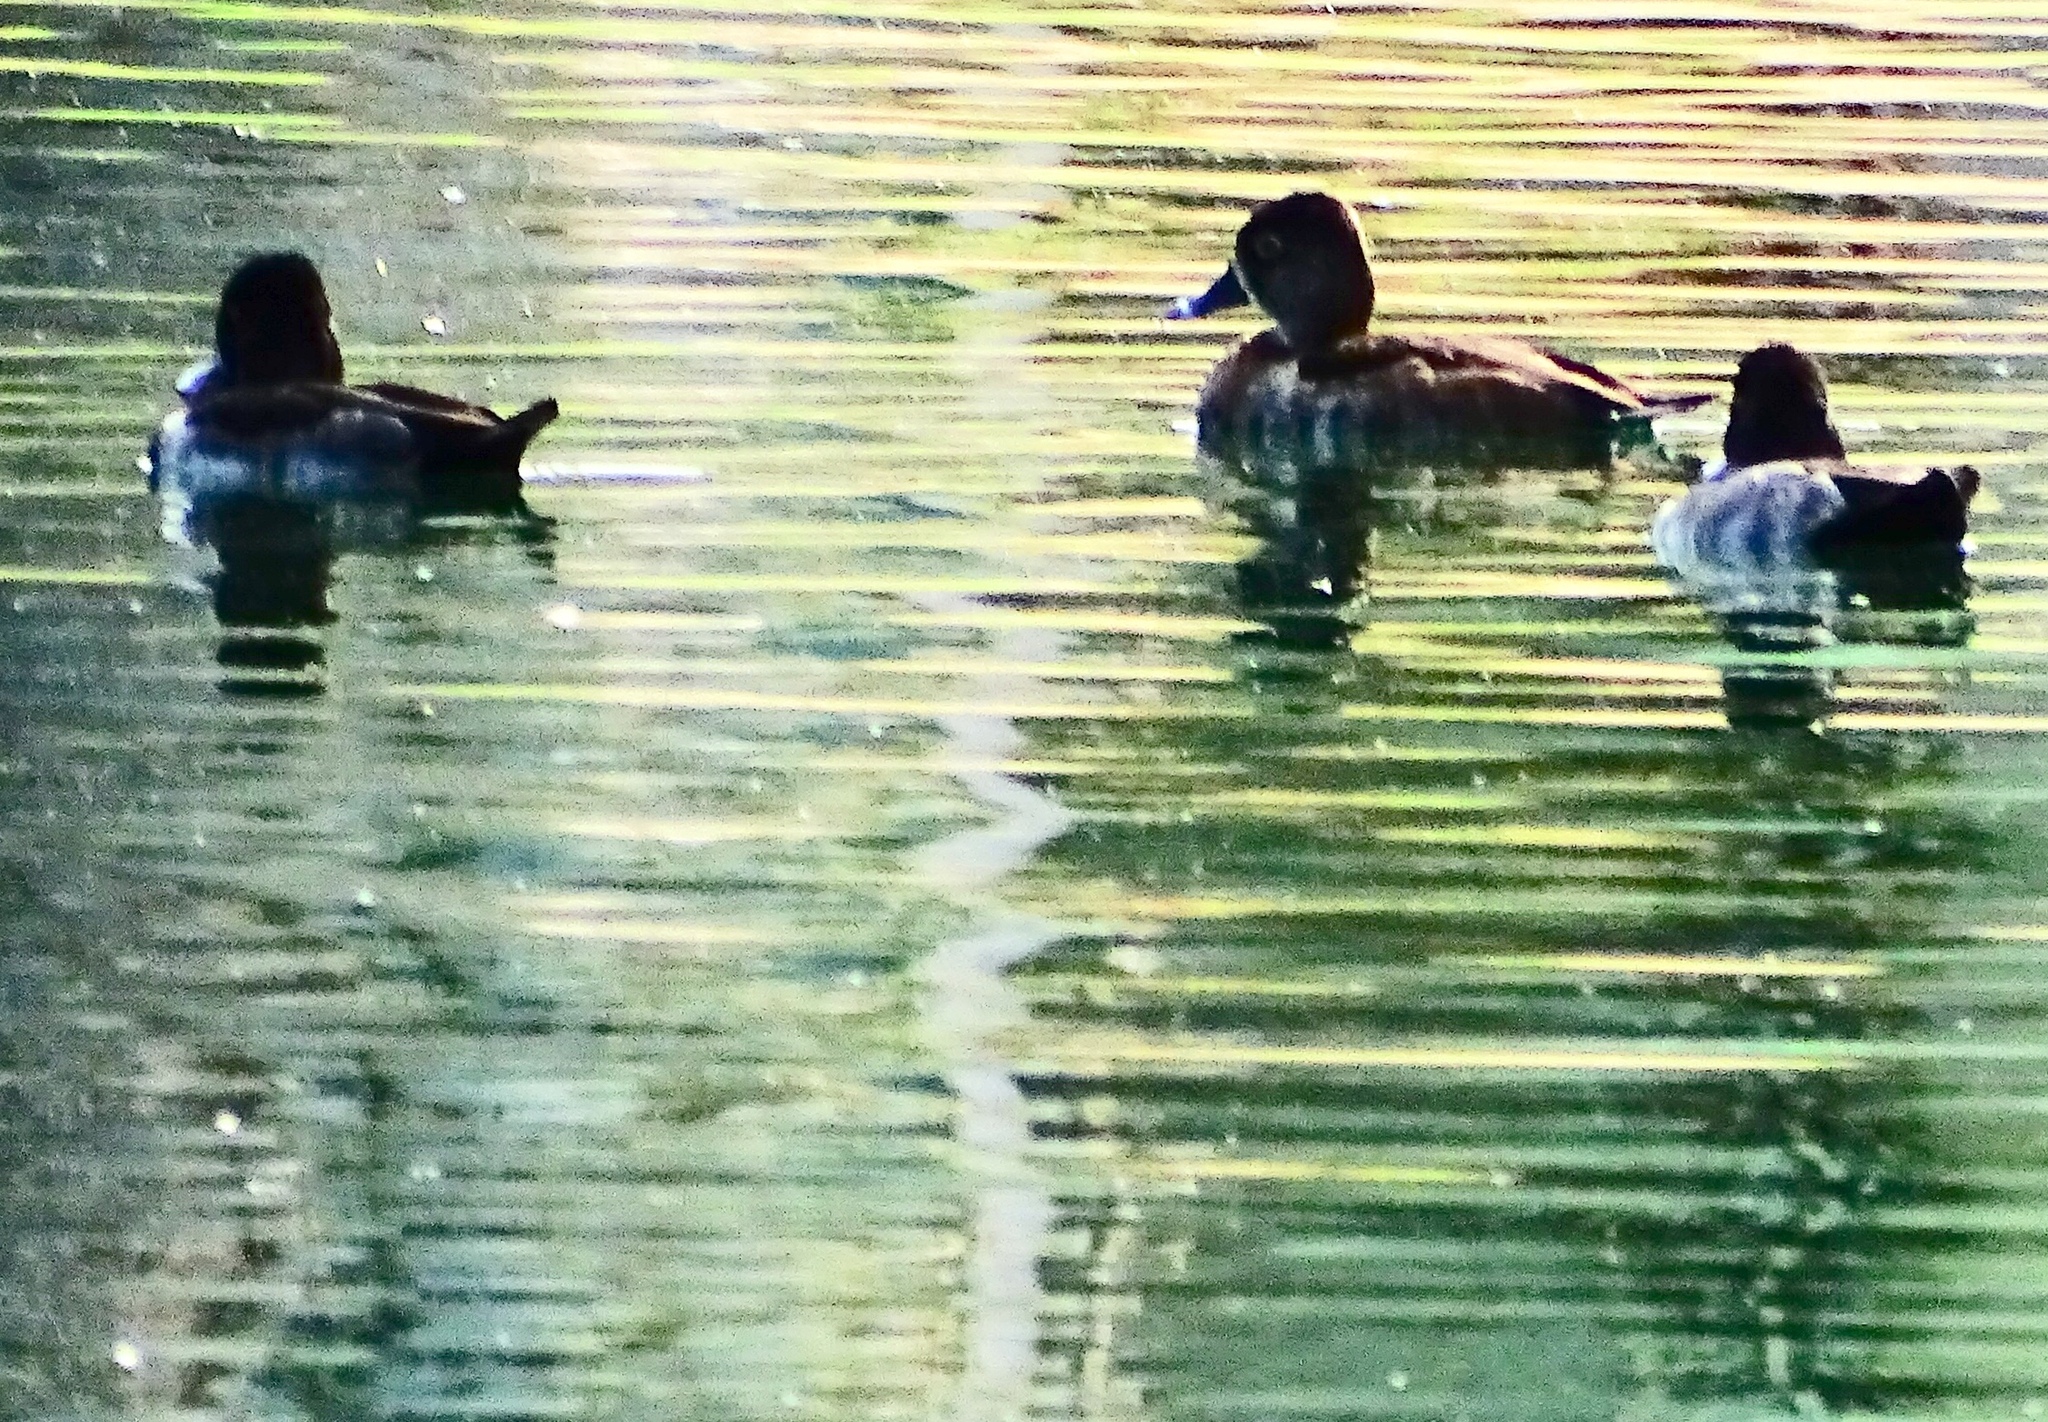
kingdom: Animalia
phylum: Chordata
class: Aves
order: Anseriformes
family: Anatidae
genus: Aythya
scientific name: Aythya collaris
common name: Ring-necked duck
